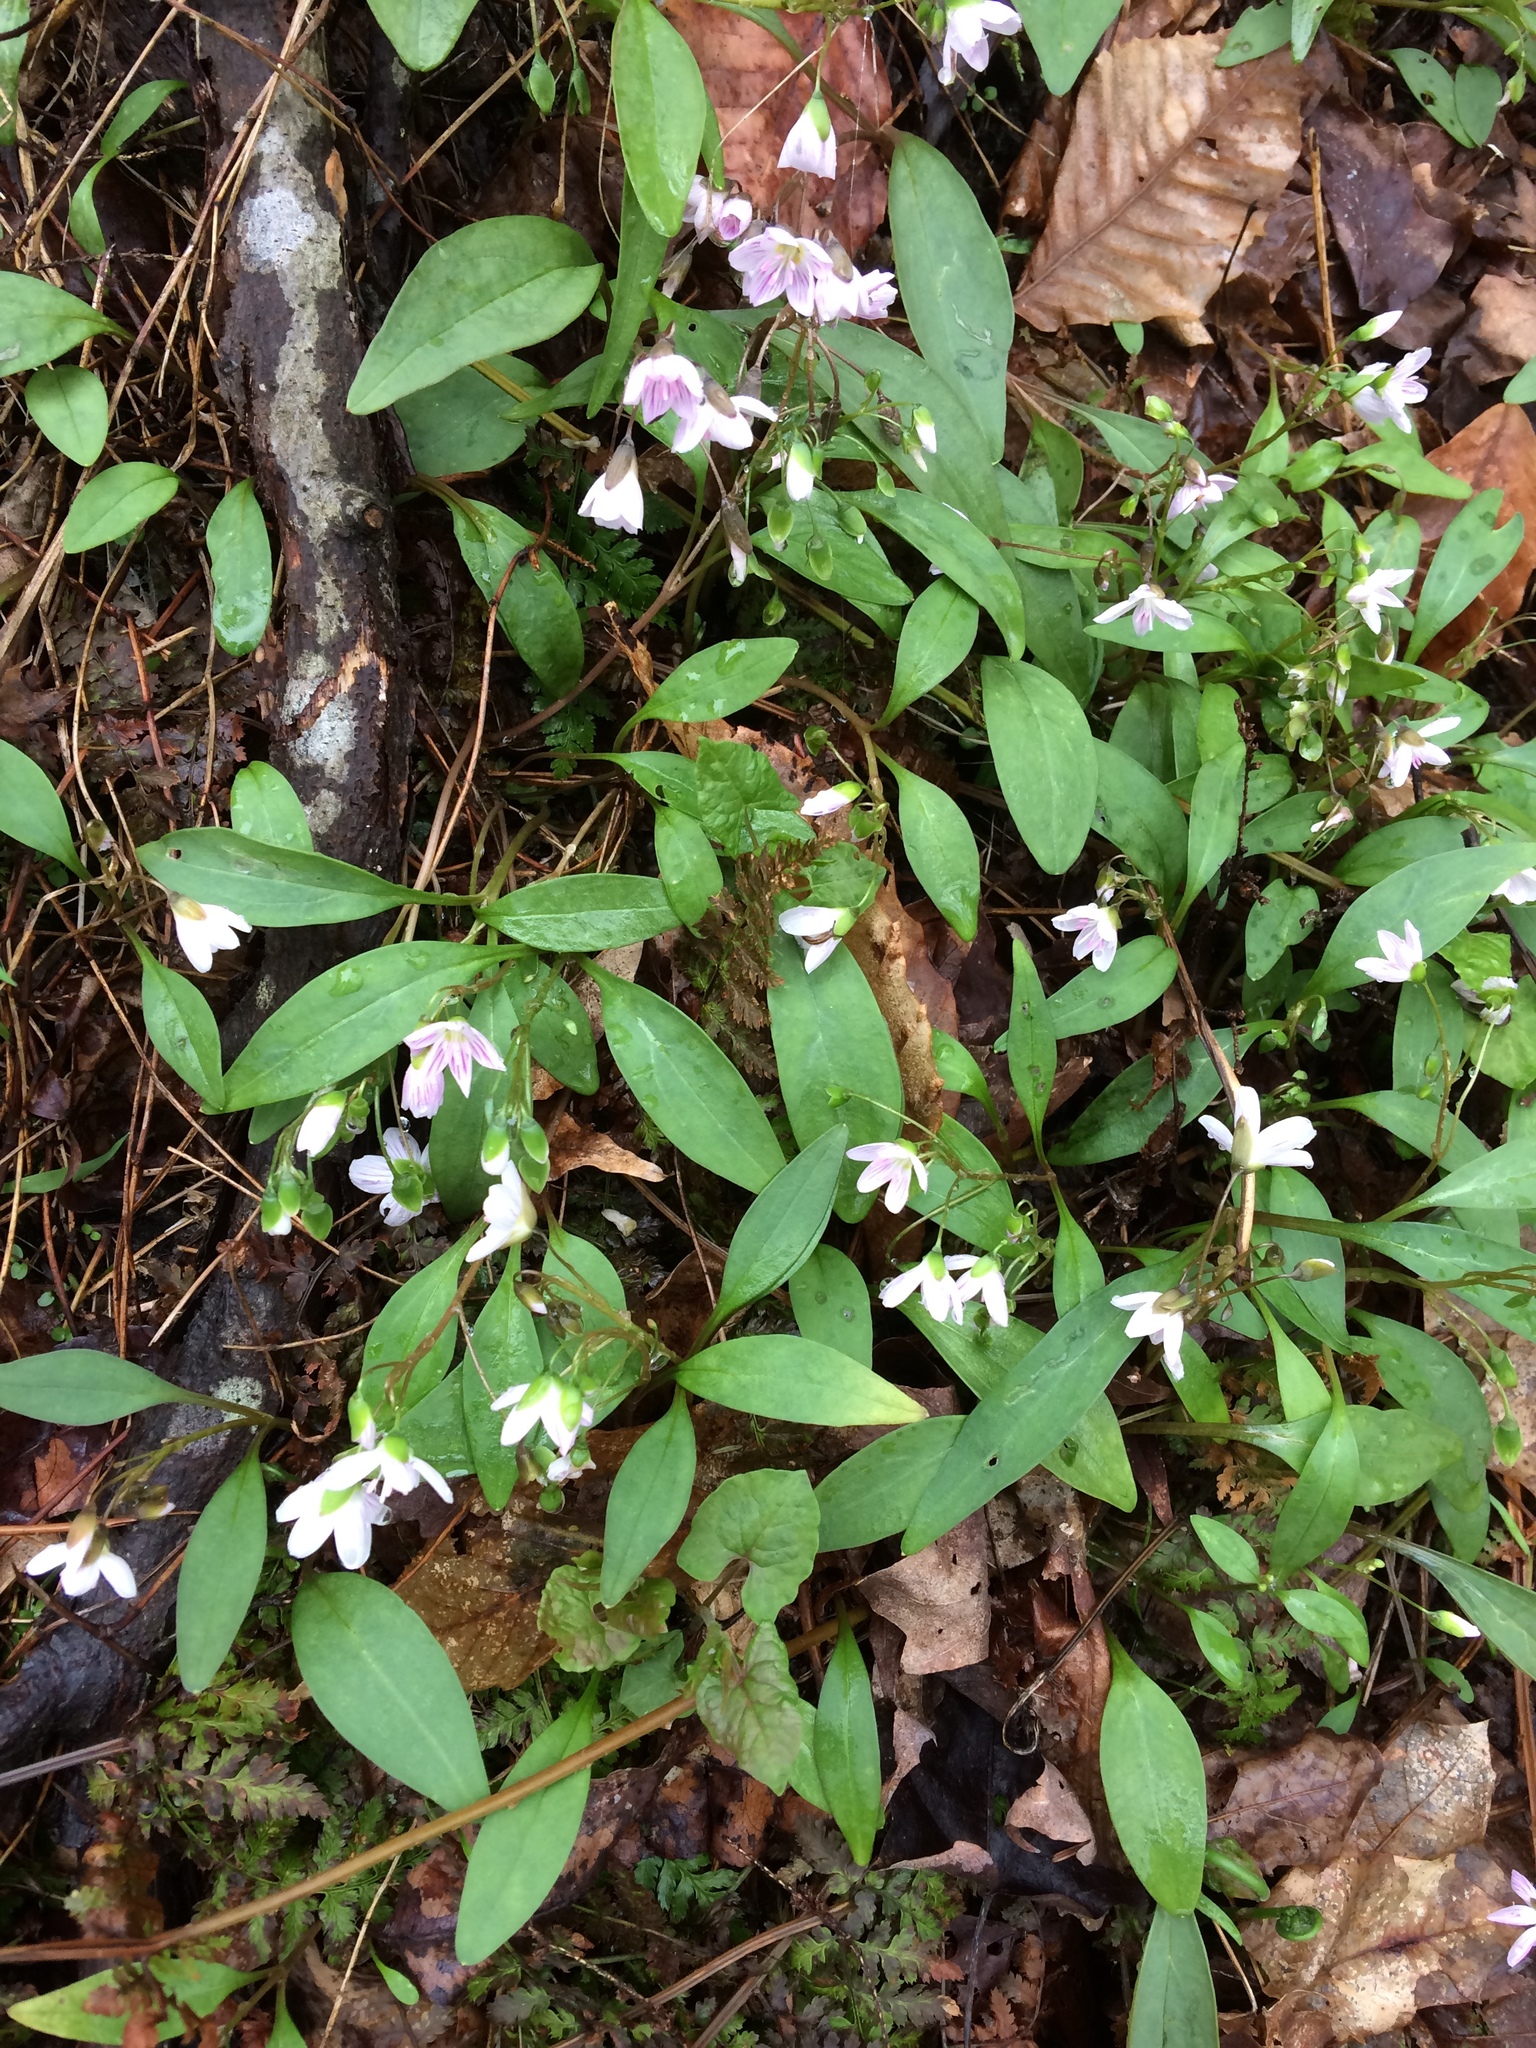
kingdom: Plantae
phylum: Tracheophyta
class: Magnoliopsida
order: Caryophyllales
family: Montiaceae
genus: Claytonia
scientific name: Claytonia caroliniana
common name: Carolina spring beauty
